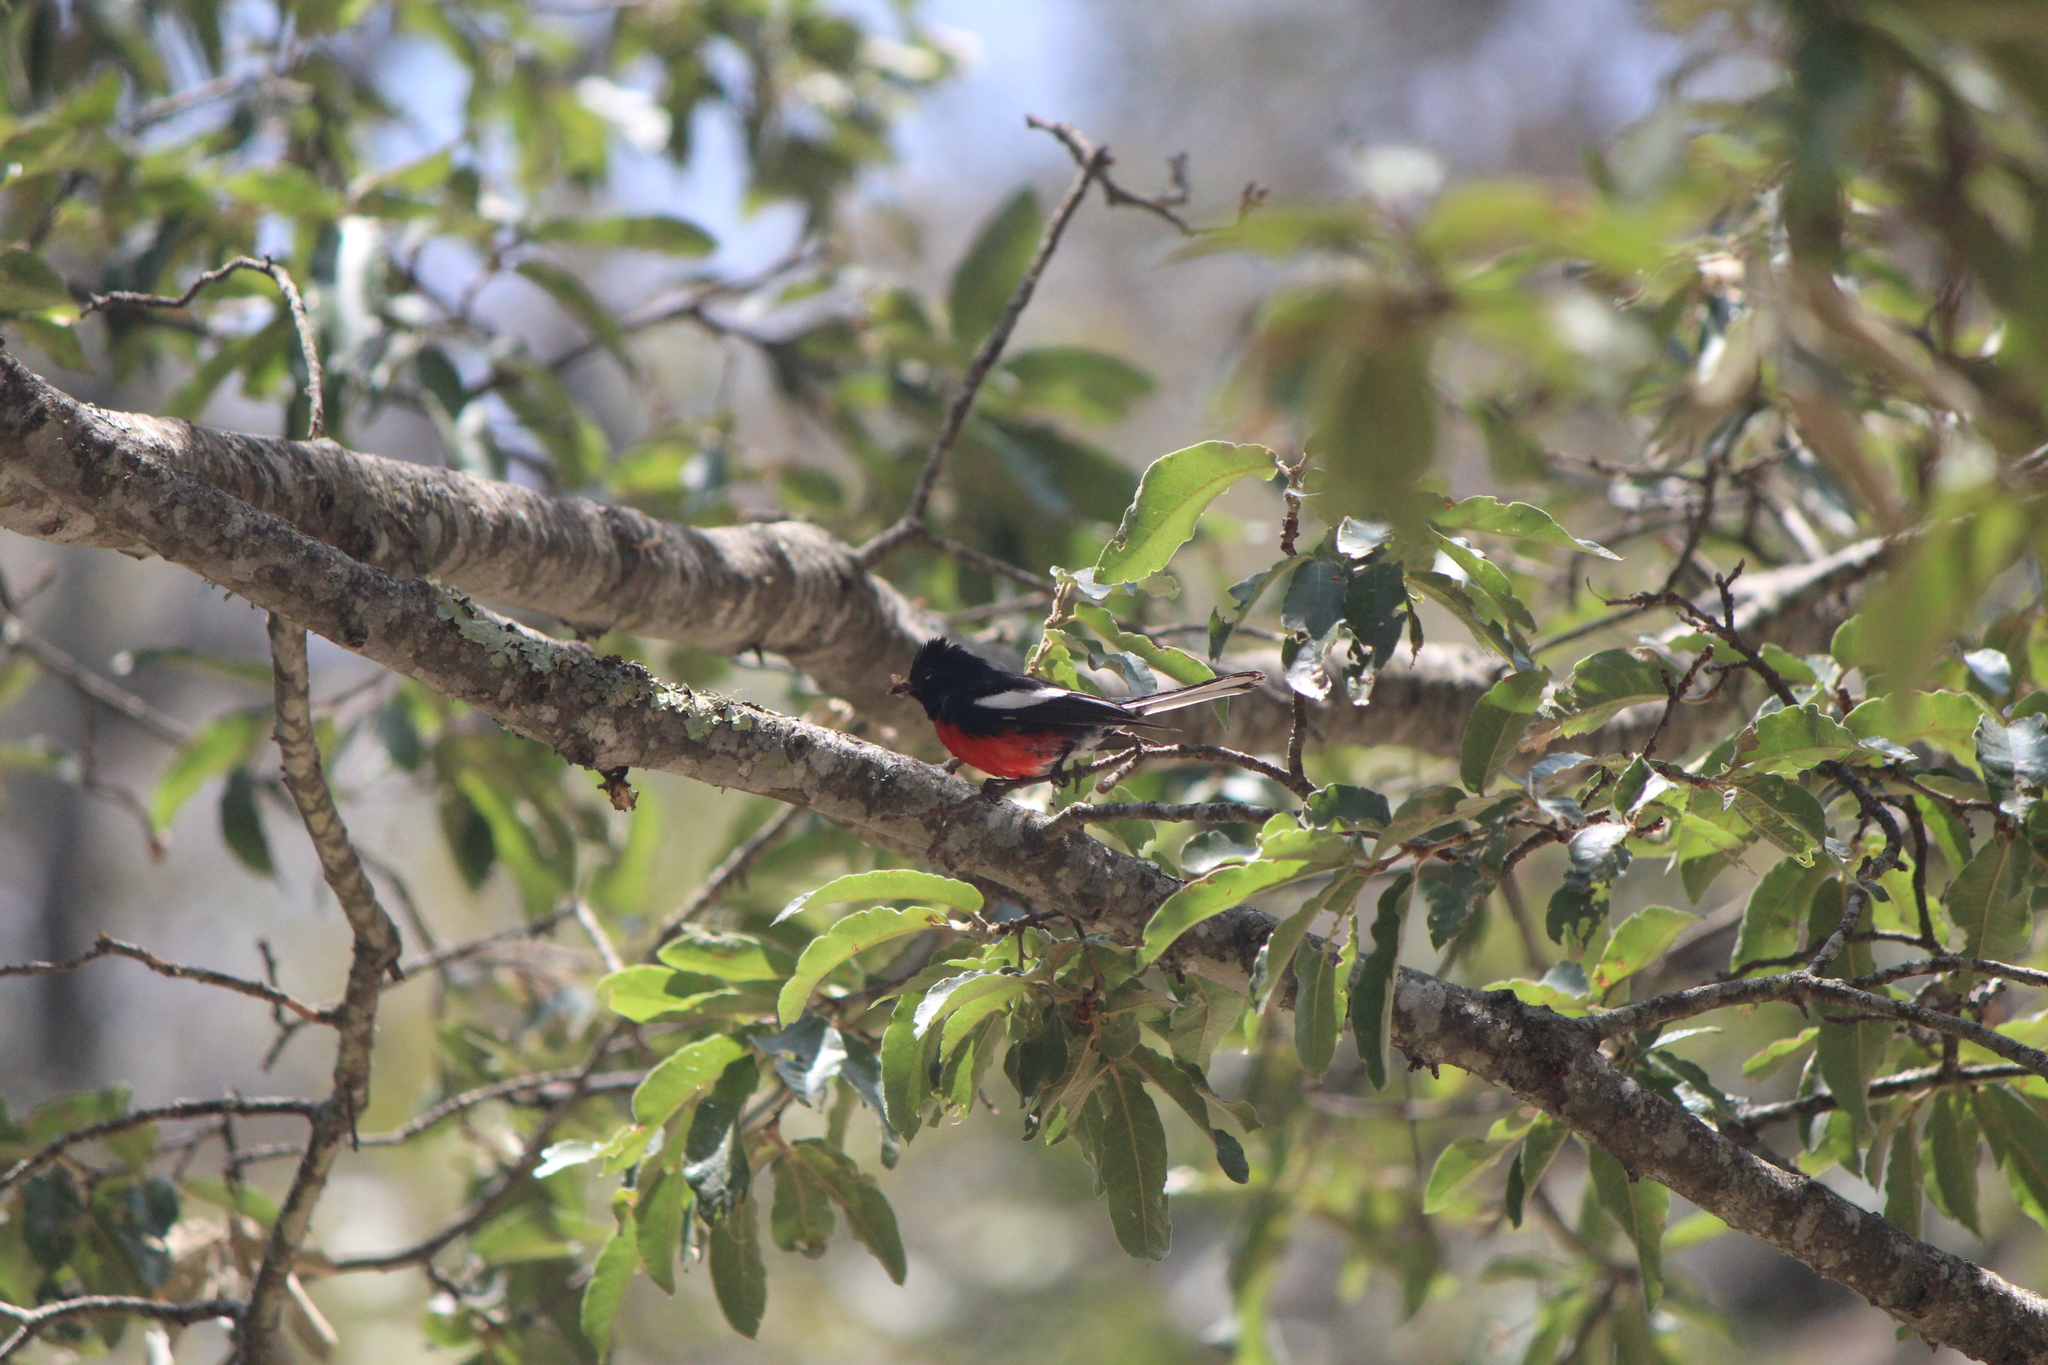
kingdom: Animalia
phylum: Chordata
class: Aves
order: Passeriformes
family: Parulidae
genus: Myioborus
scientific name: Myioborus pictus
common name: Painted whitestart
